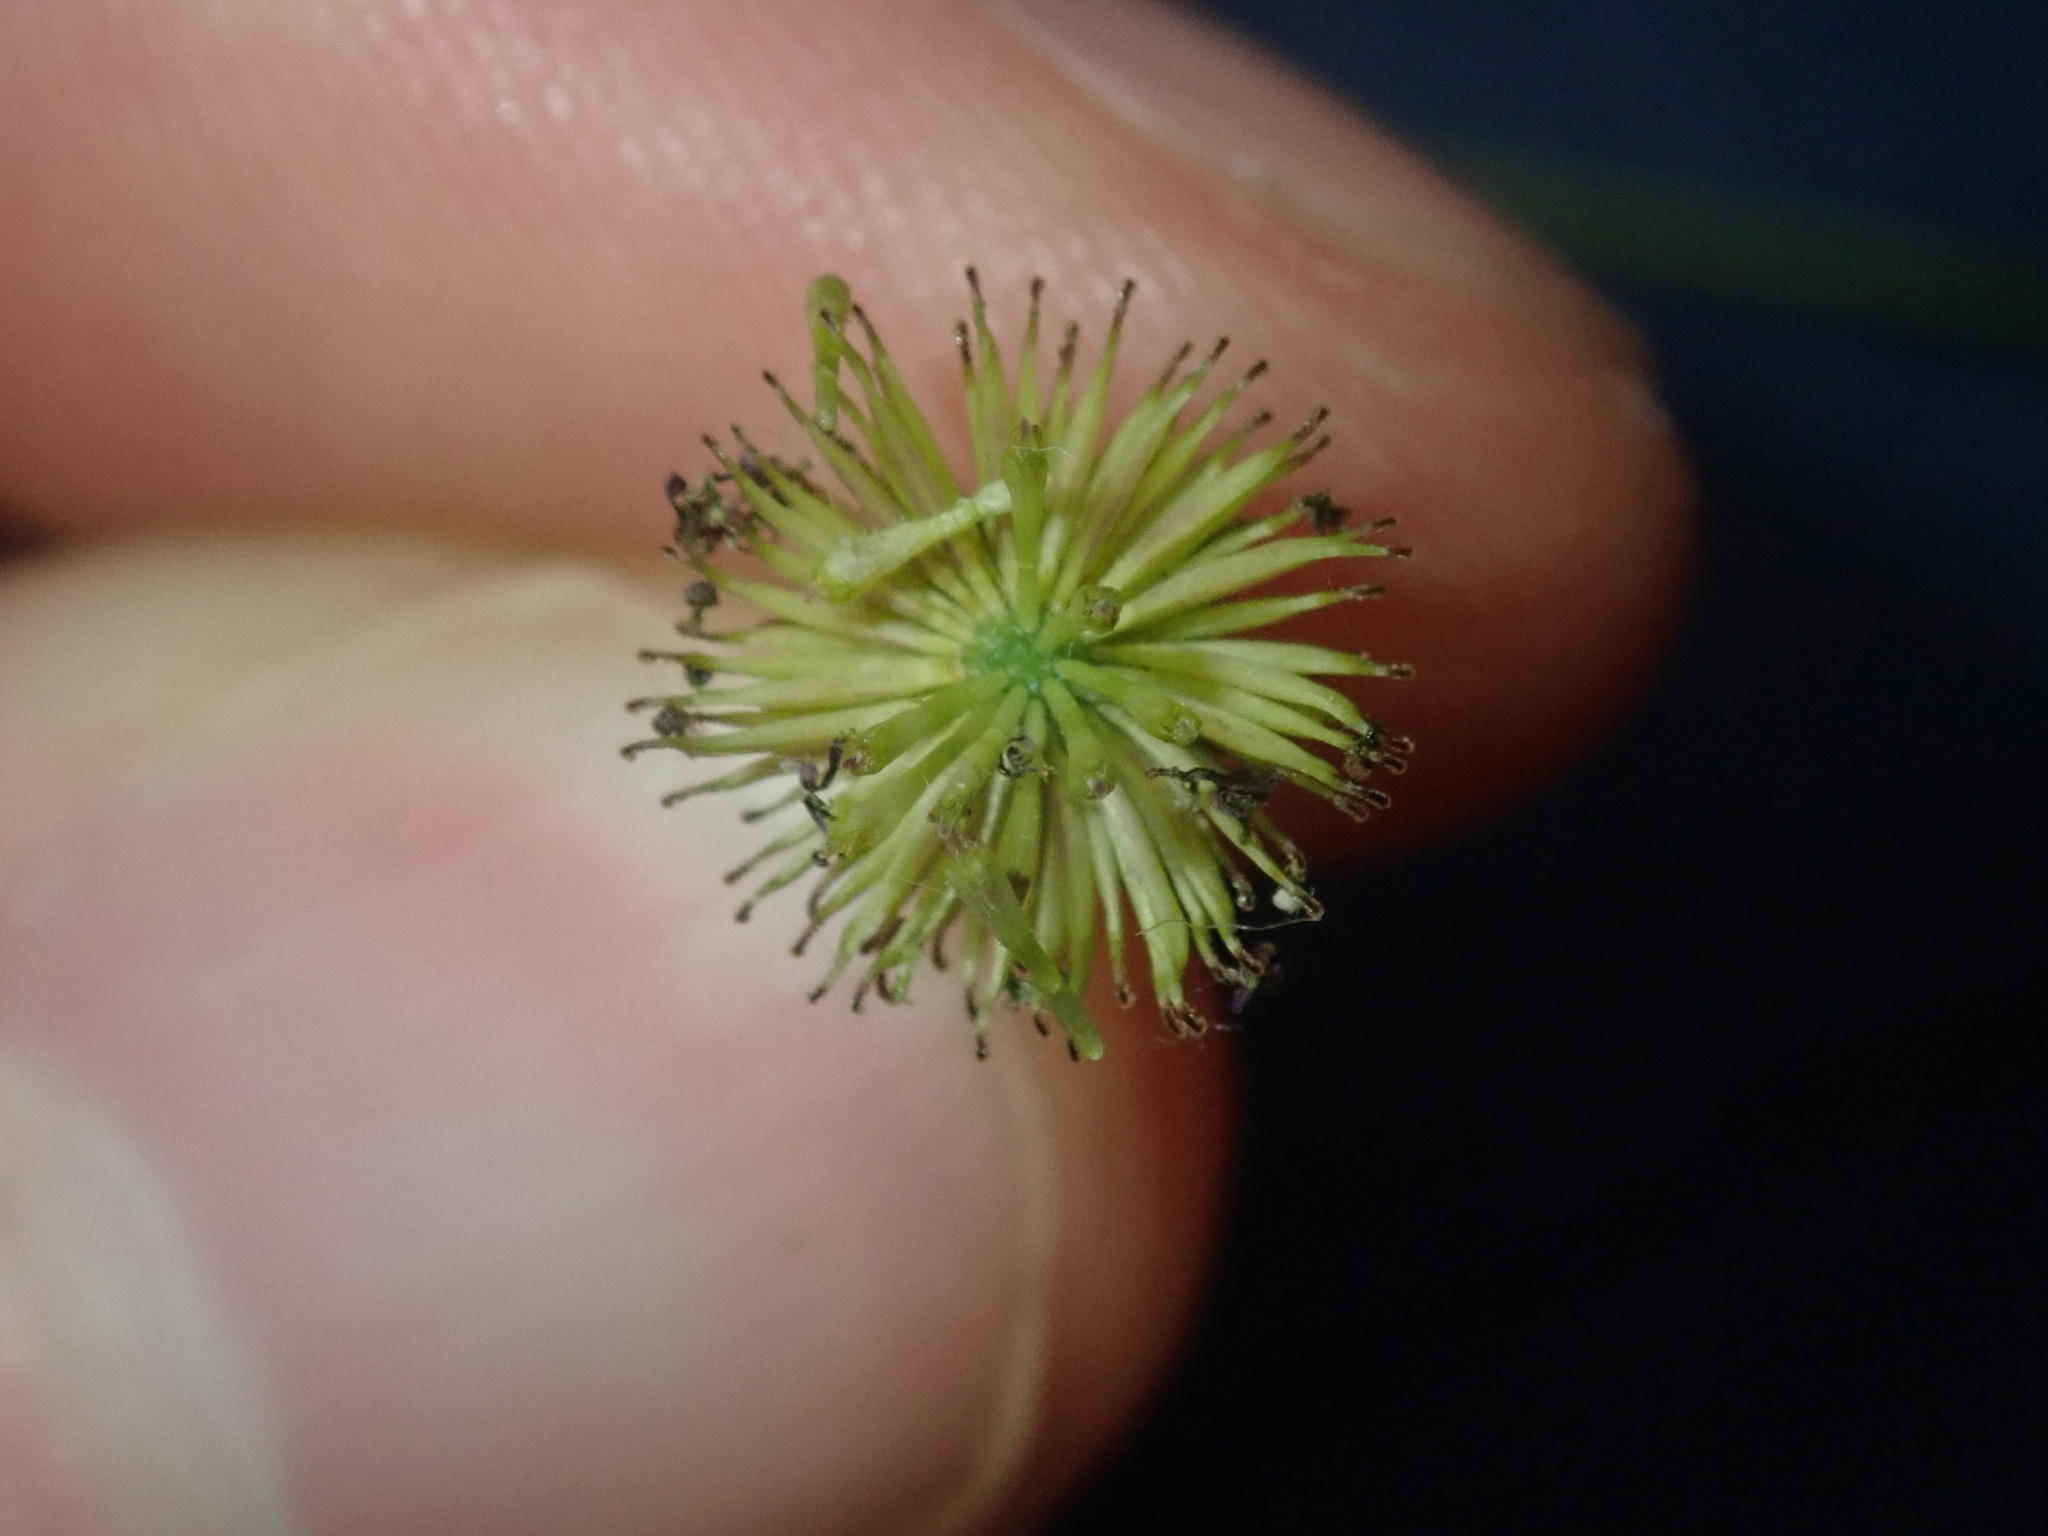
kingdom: Plantae
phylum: Tracheophyta
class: Magnoliopsida
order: Asterales
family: Asteraceae
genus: Lagenophora
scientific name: Lagenophora sublyrata ter
